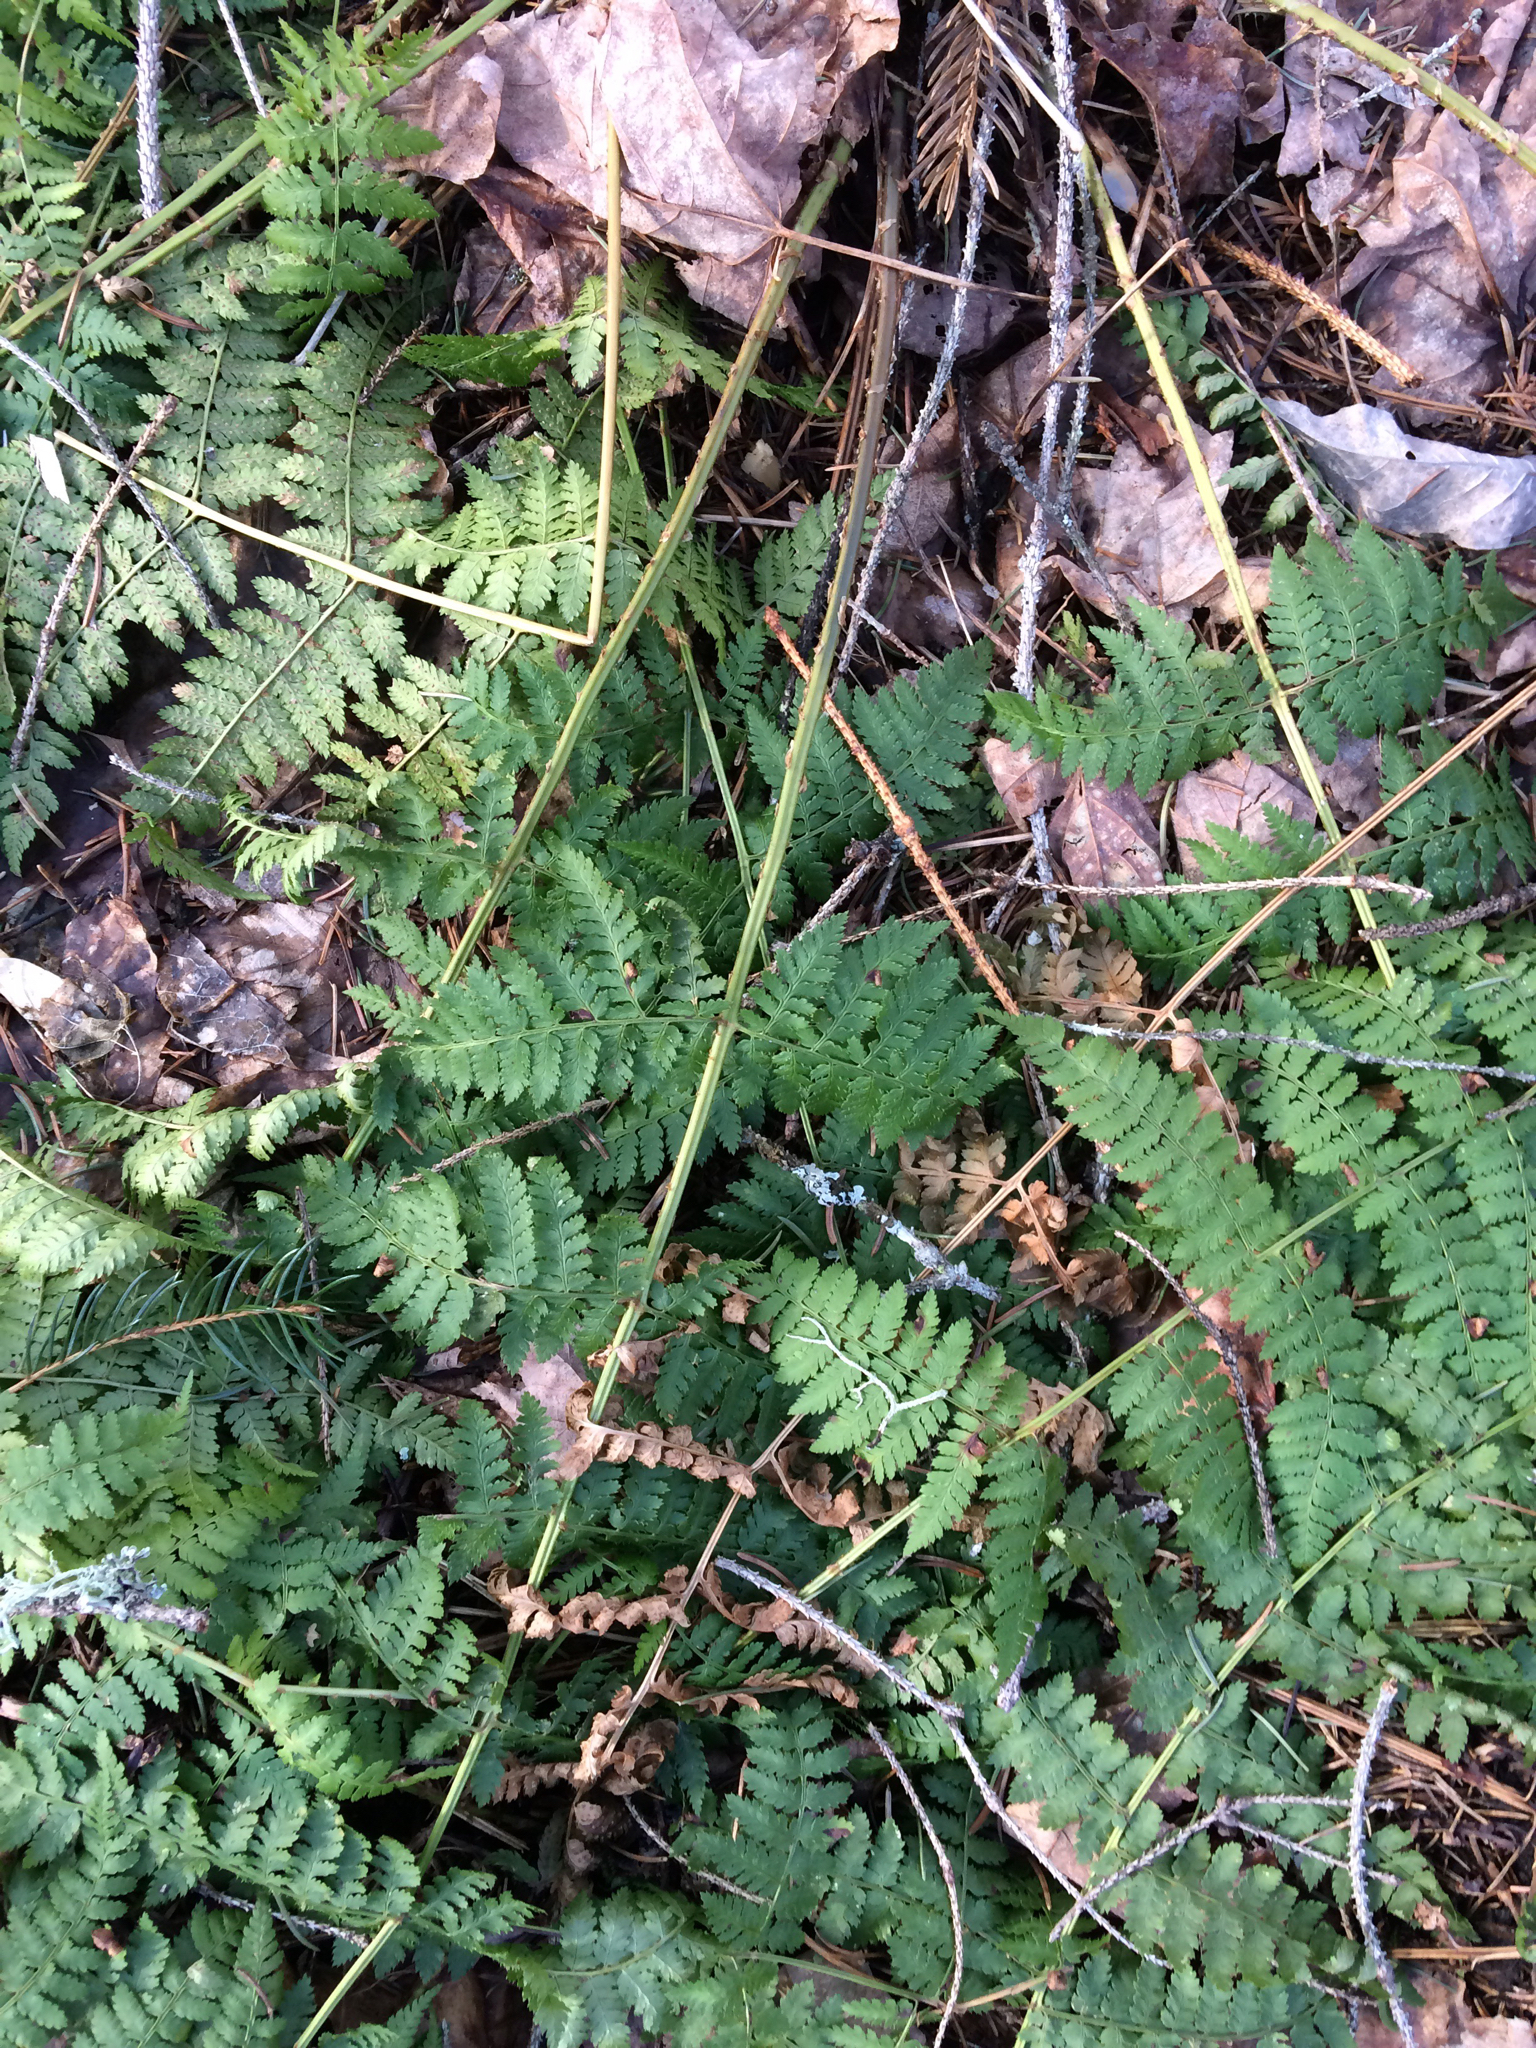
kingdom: Plantae
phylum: Tracheophyta
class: Polypodiopsida
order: Polypodiales
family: Dryopteridaceae
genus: Dryopteris
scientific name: Dryopteris intermedia
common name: Evergreen wood fern
